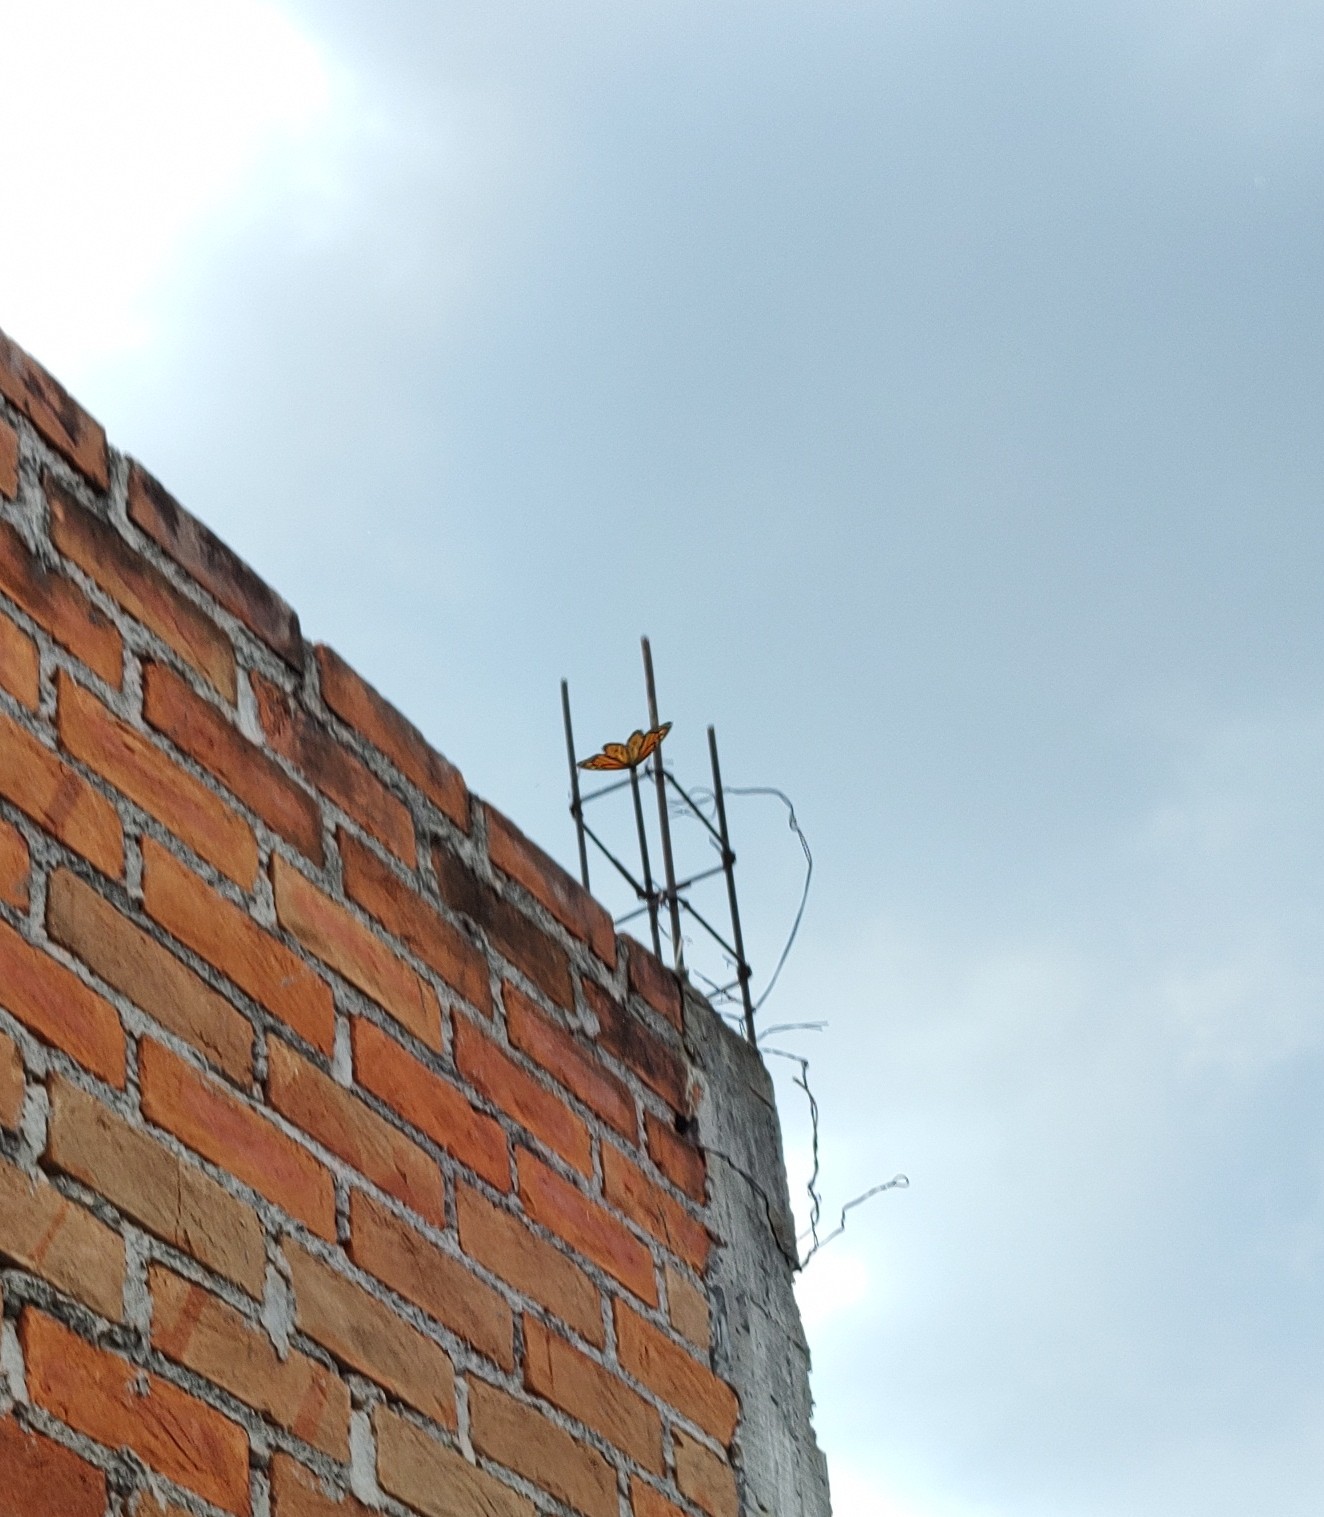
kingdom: Animalia
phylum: Arthropoda
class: Insecta
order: Lepidoptera
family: Nymphalidae
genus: Danaus
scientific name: Danaus plexippus
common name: Monarch
